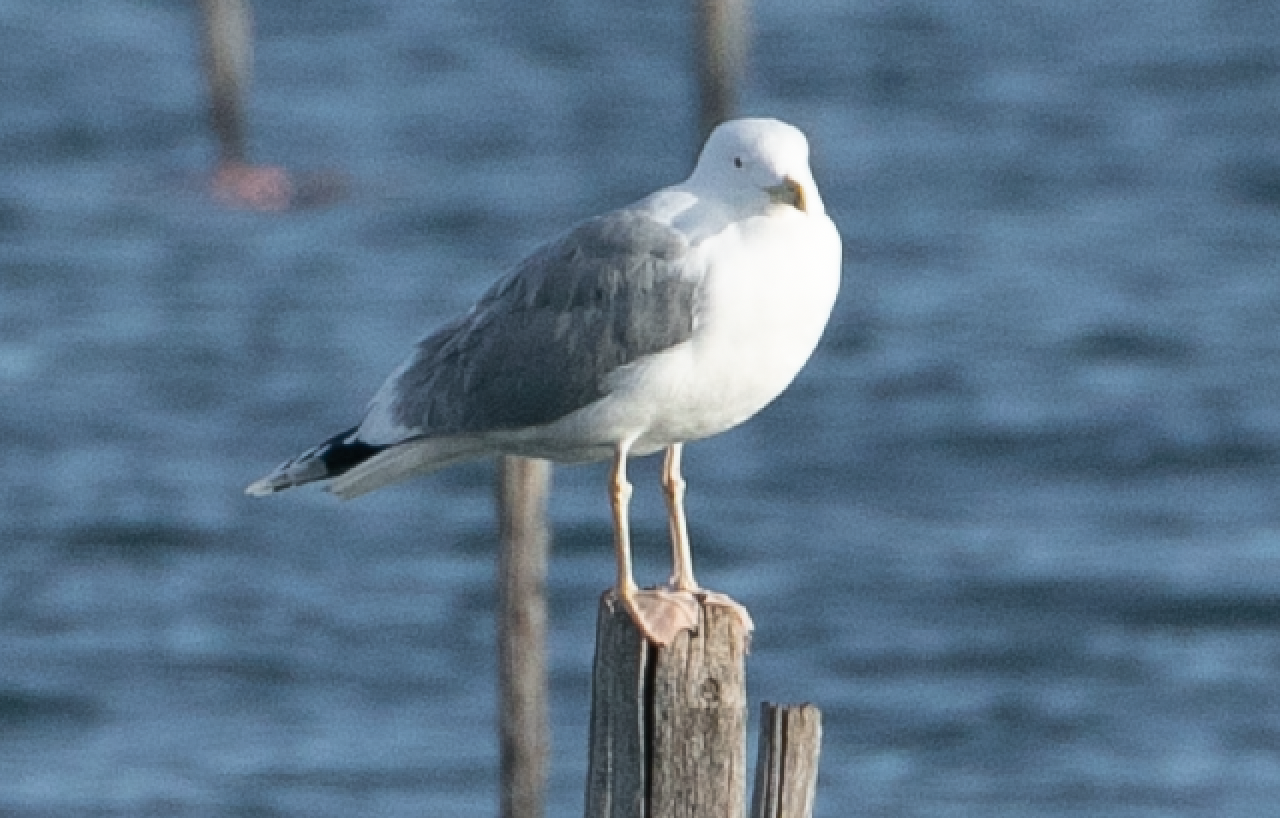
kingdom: Animalia
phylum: Chordata
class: Aves
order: Charadriiformes
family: Laridae
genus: Larus
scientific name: Larus cachinnans
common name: Caspian gull
